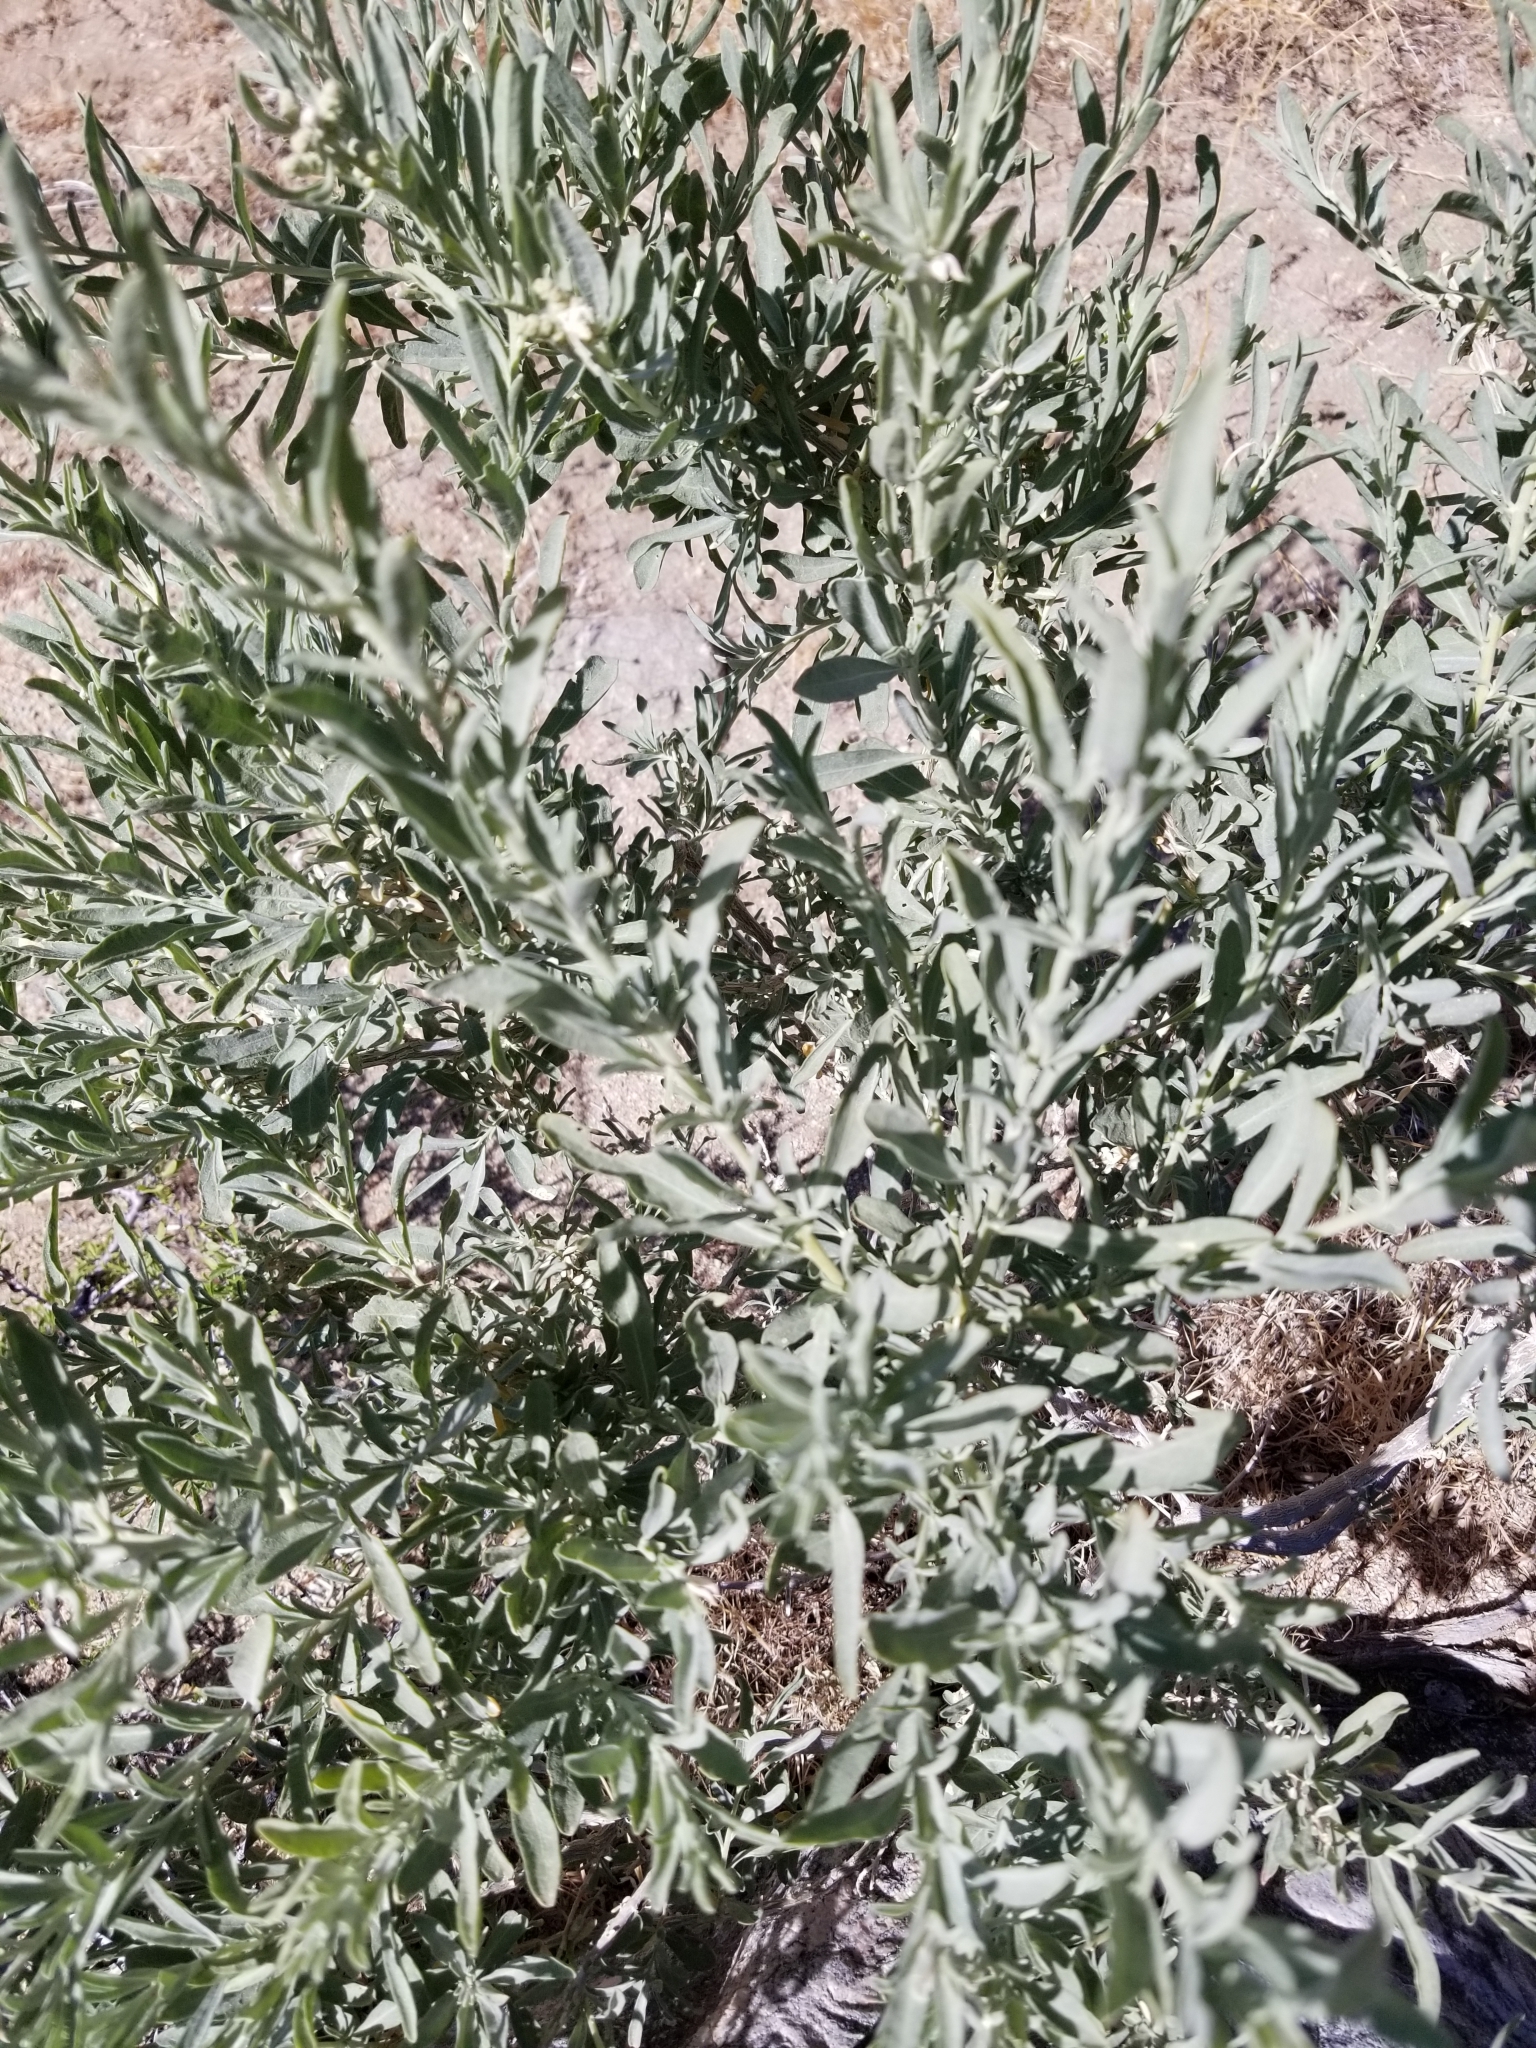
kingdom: Plantae
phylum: Tracheophyta
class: Magnoliopsida
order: Caryophyllales
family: Amaranthaceae
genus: Atriplex
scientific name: Atriplex canescens
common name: Four-wing saltbush
